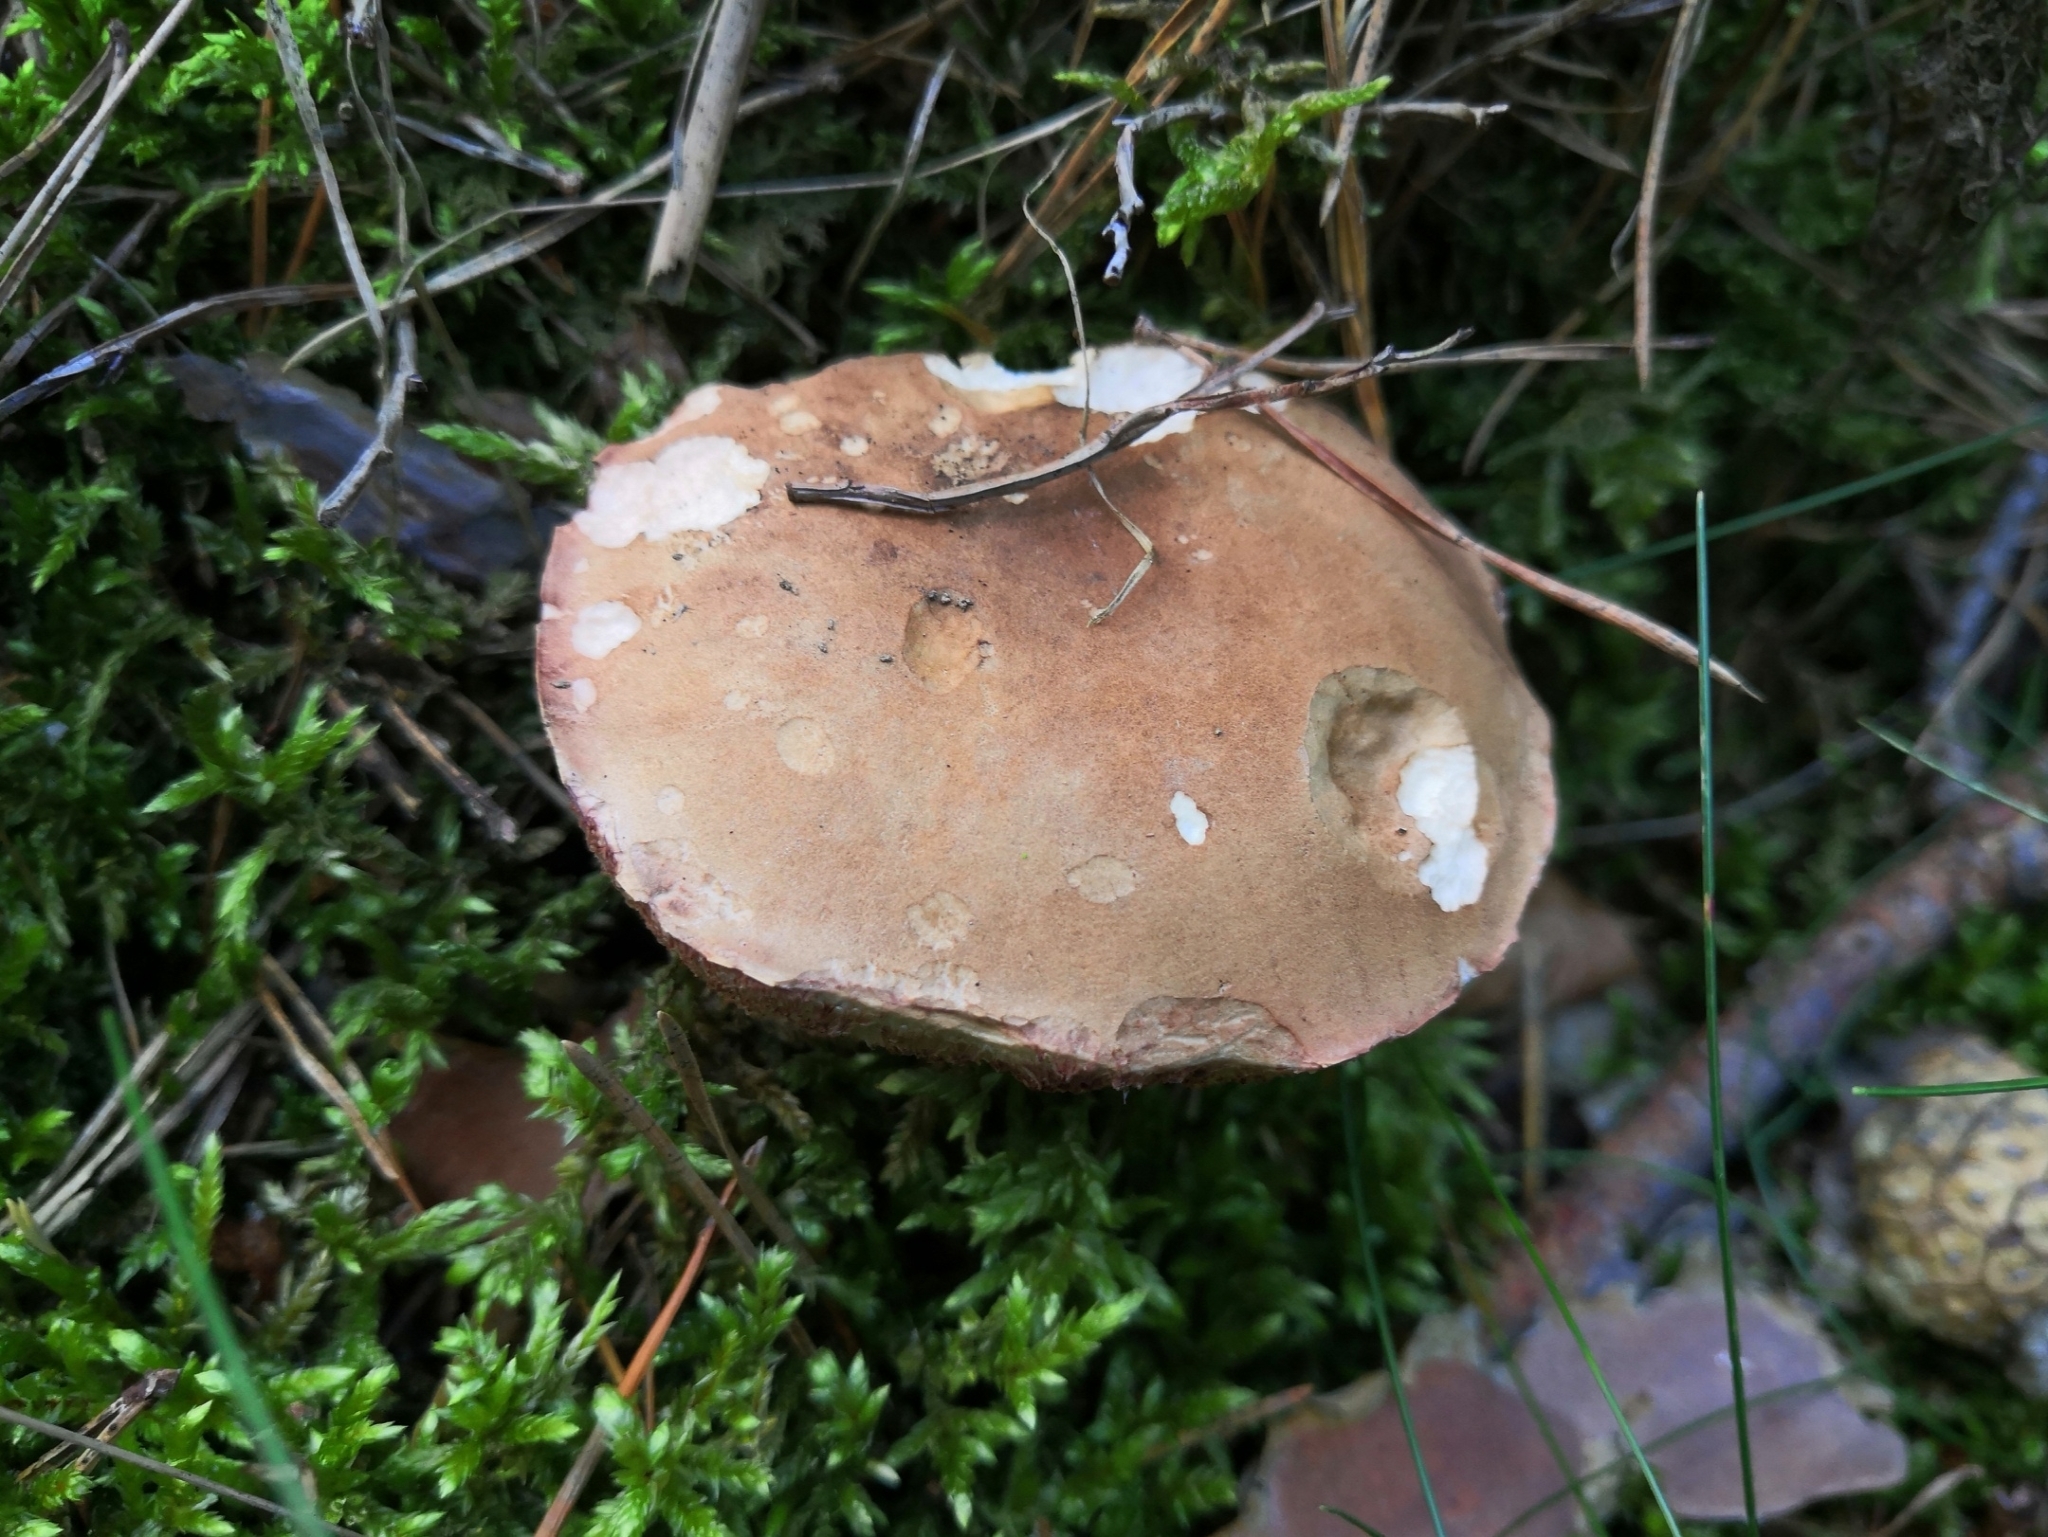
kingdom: Fungi
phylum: Basidiomycota
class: Agaricomycetes
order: Boletales
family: Boletaceae
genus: Tylopilus
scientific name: Tylopilus felleus
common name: Bitter bolete
